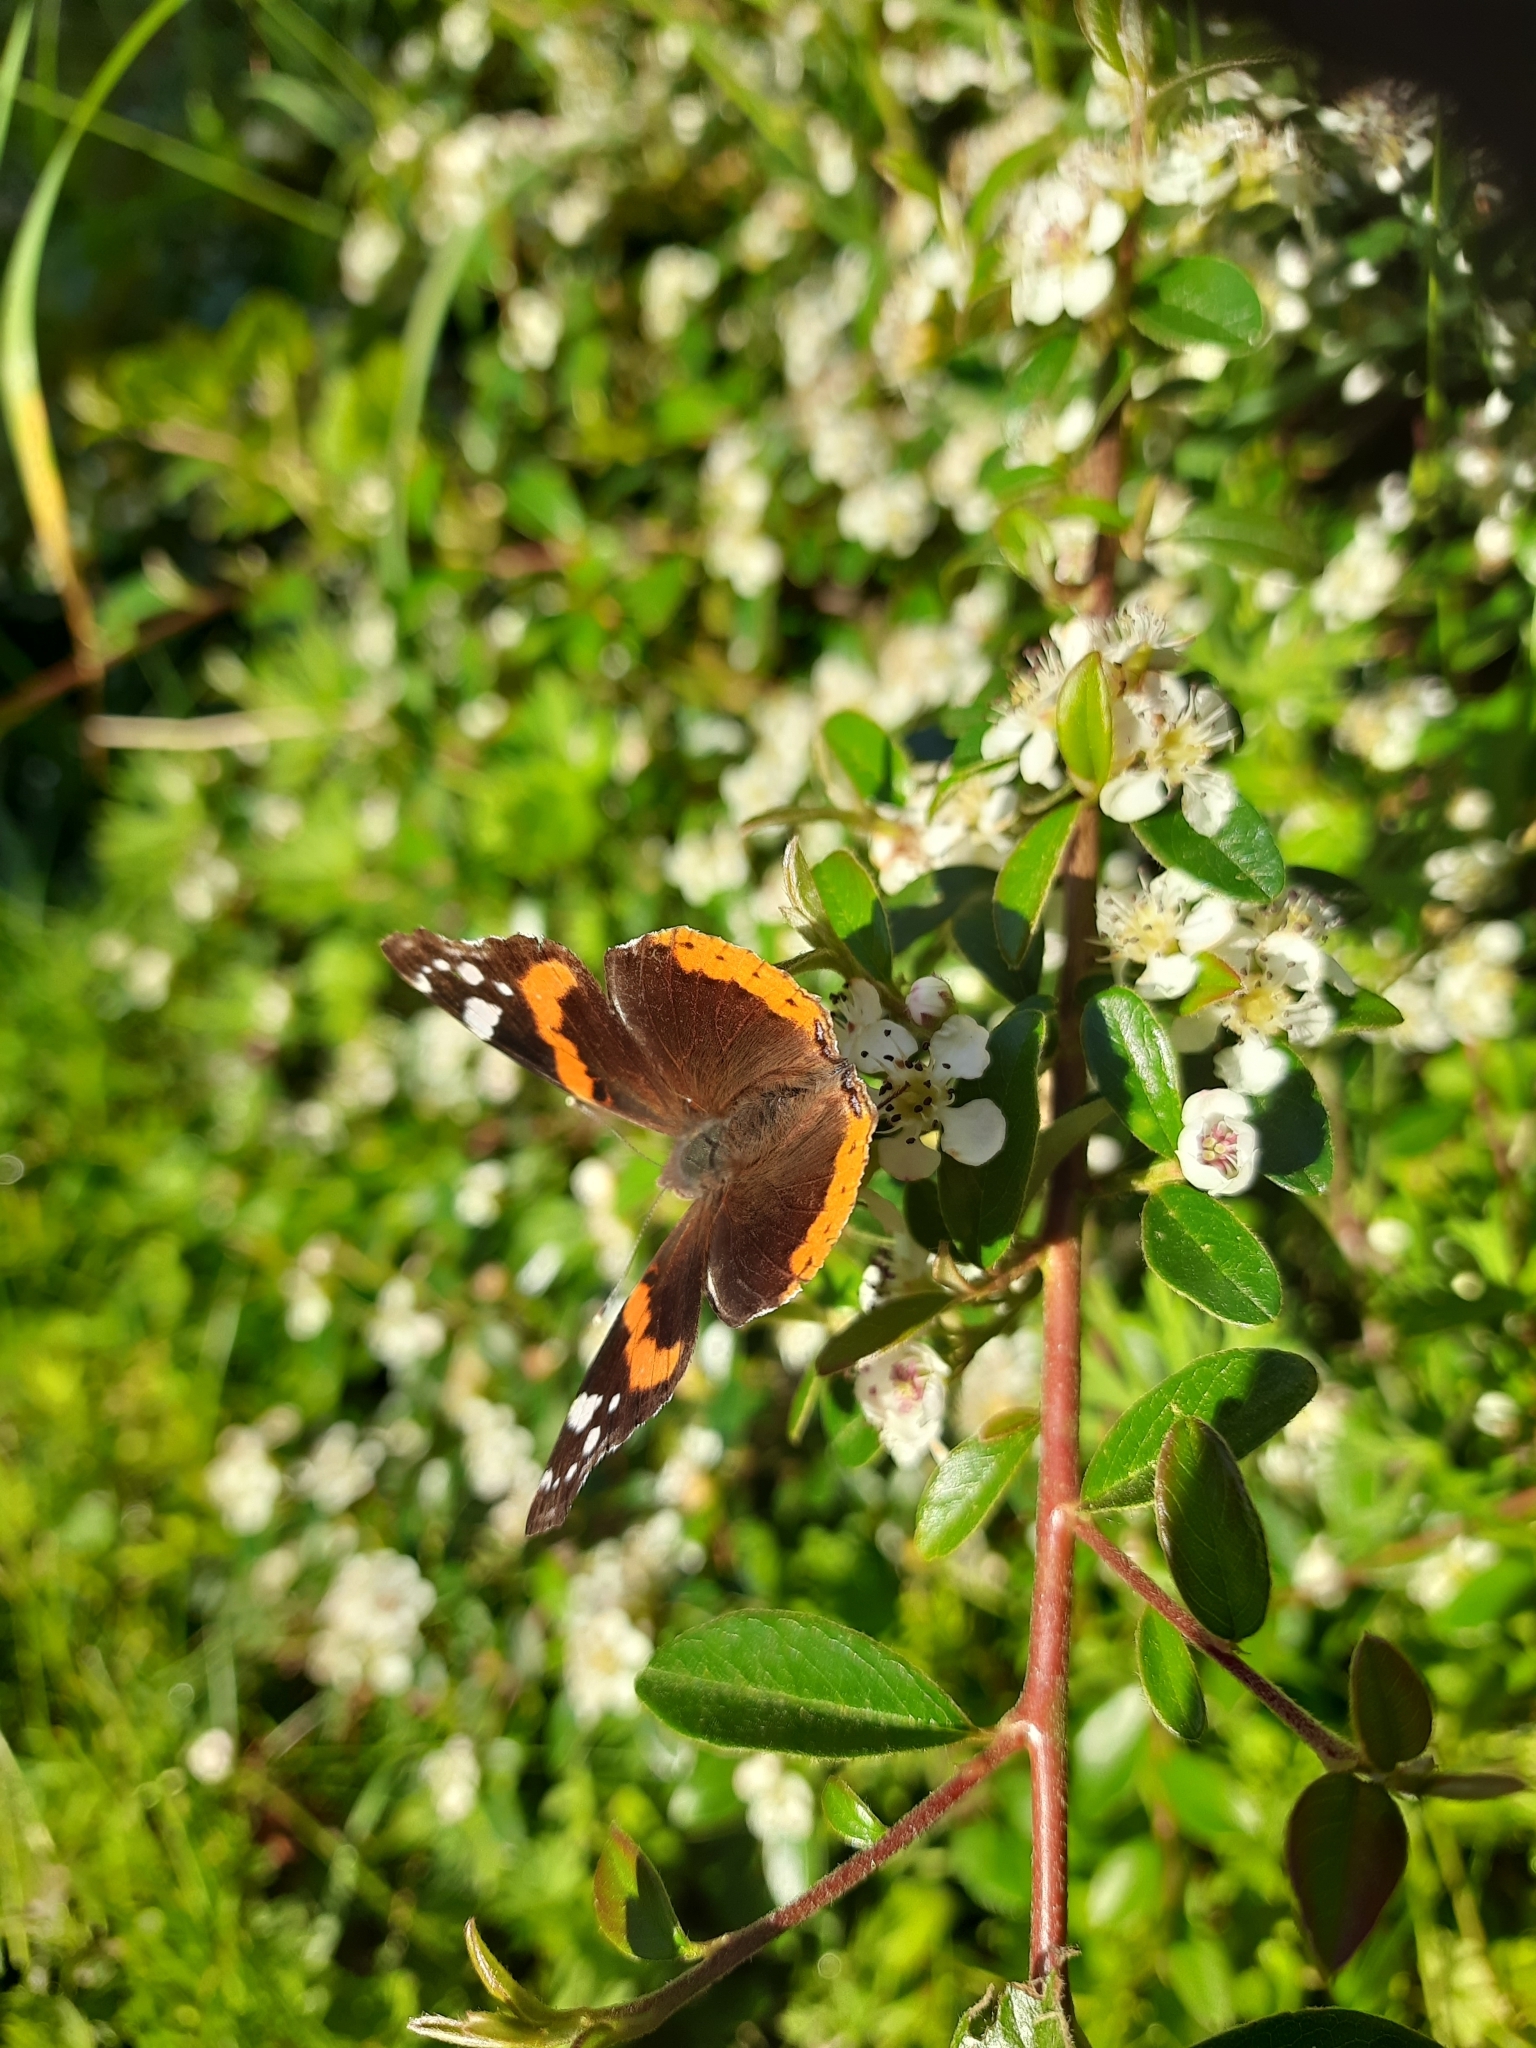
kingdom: Animalia
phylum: Arthropoda
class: Insecta
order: Lepidoptera
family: Nymphalidae
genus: Vanessa
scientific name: Vanessa atalanta
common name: Red admiral
